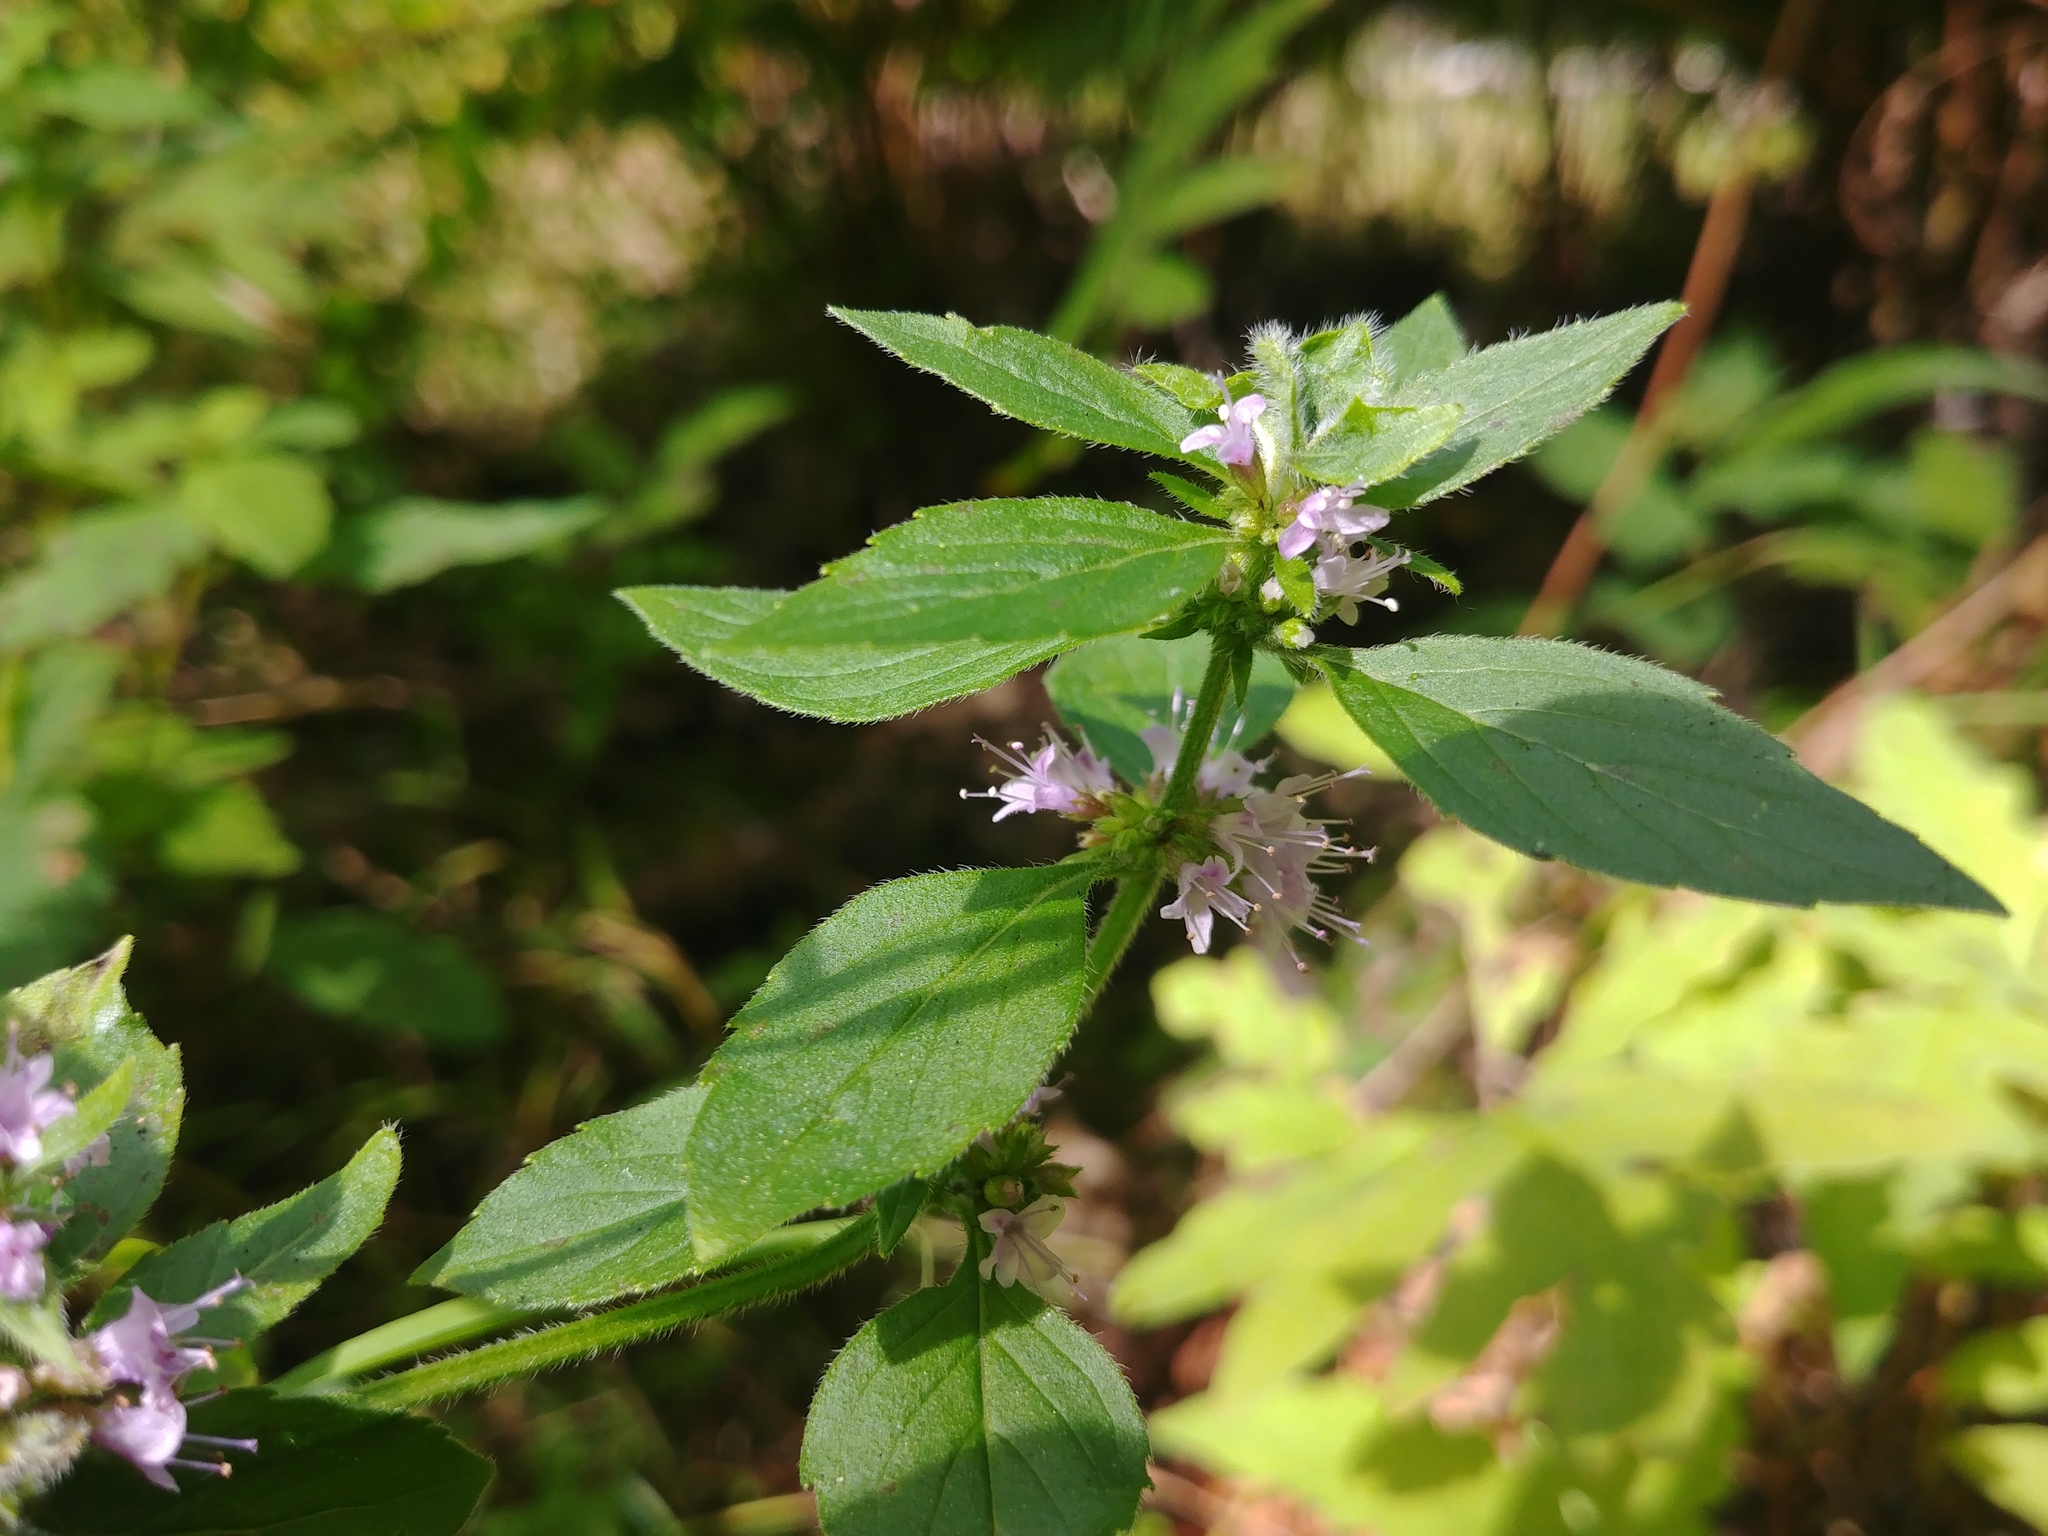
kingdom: Plantae
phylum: Tracheophyta
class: Magnoliopsida
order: Lamiales
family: Lamiaceae
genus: Mentha
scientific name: Mentha canadensis
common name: American corn mint
